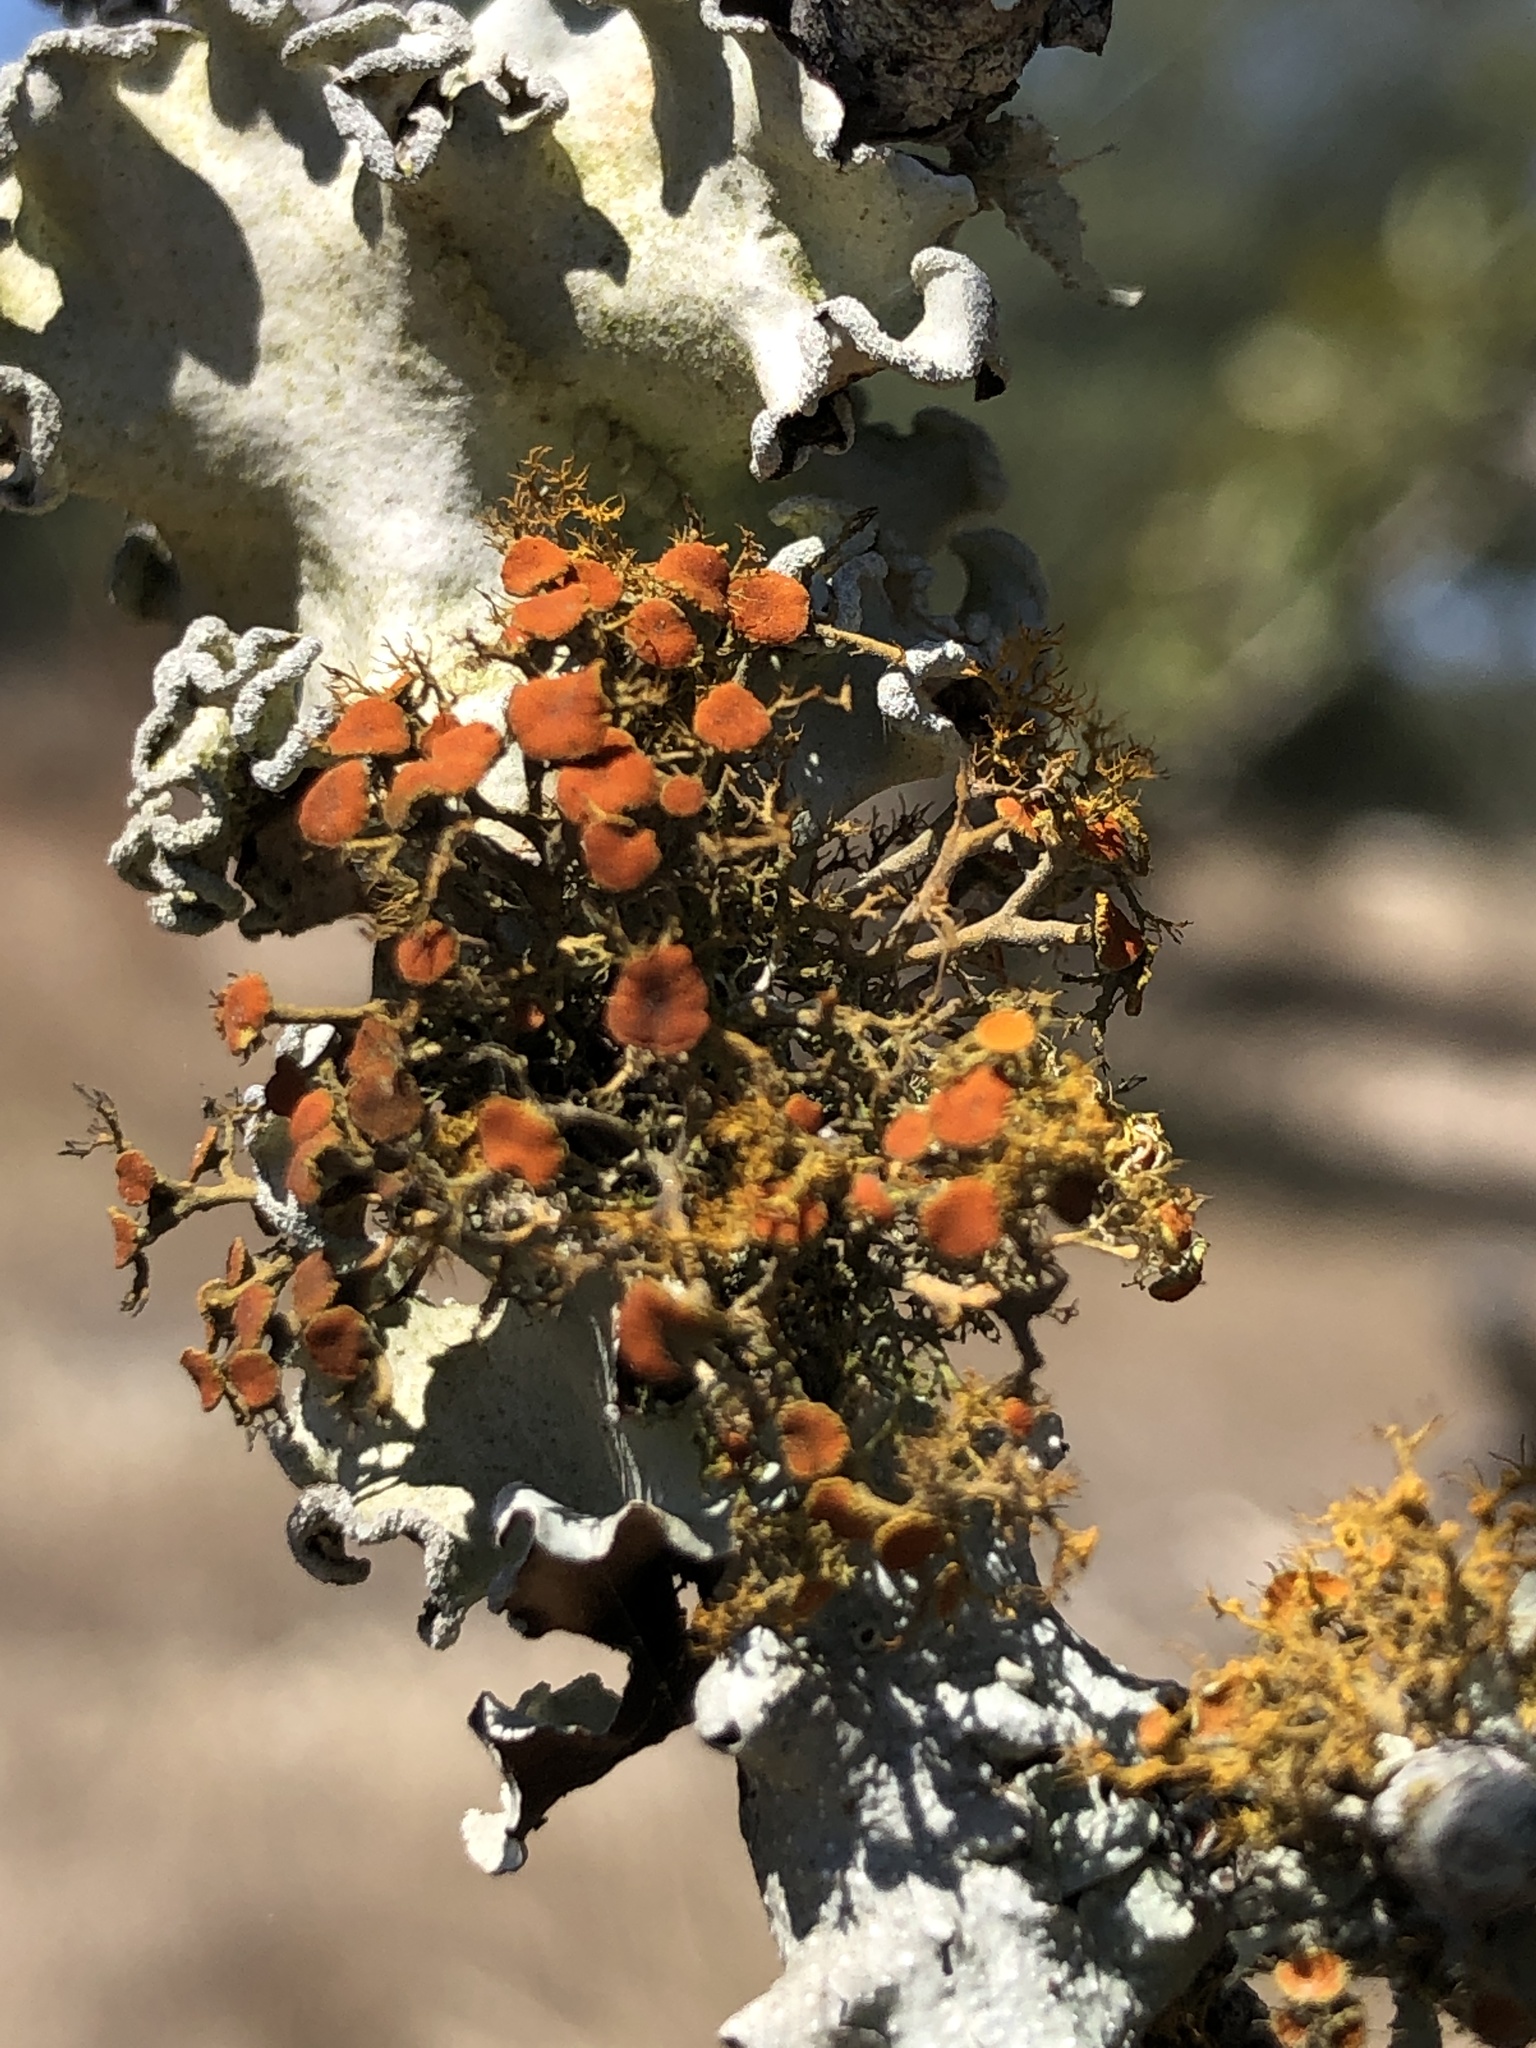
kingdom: Fungi
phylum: Ascomycota
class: Lecanoromycetes
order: Teloschistales
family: Teloschistaceae
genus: Teloschistes
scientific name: Teloschistes exilis
